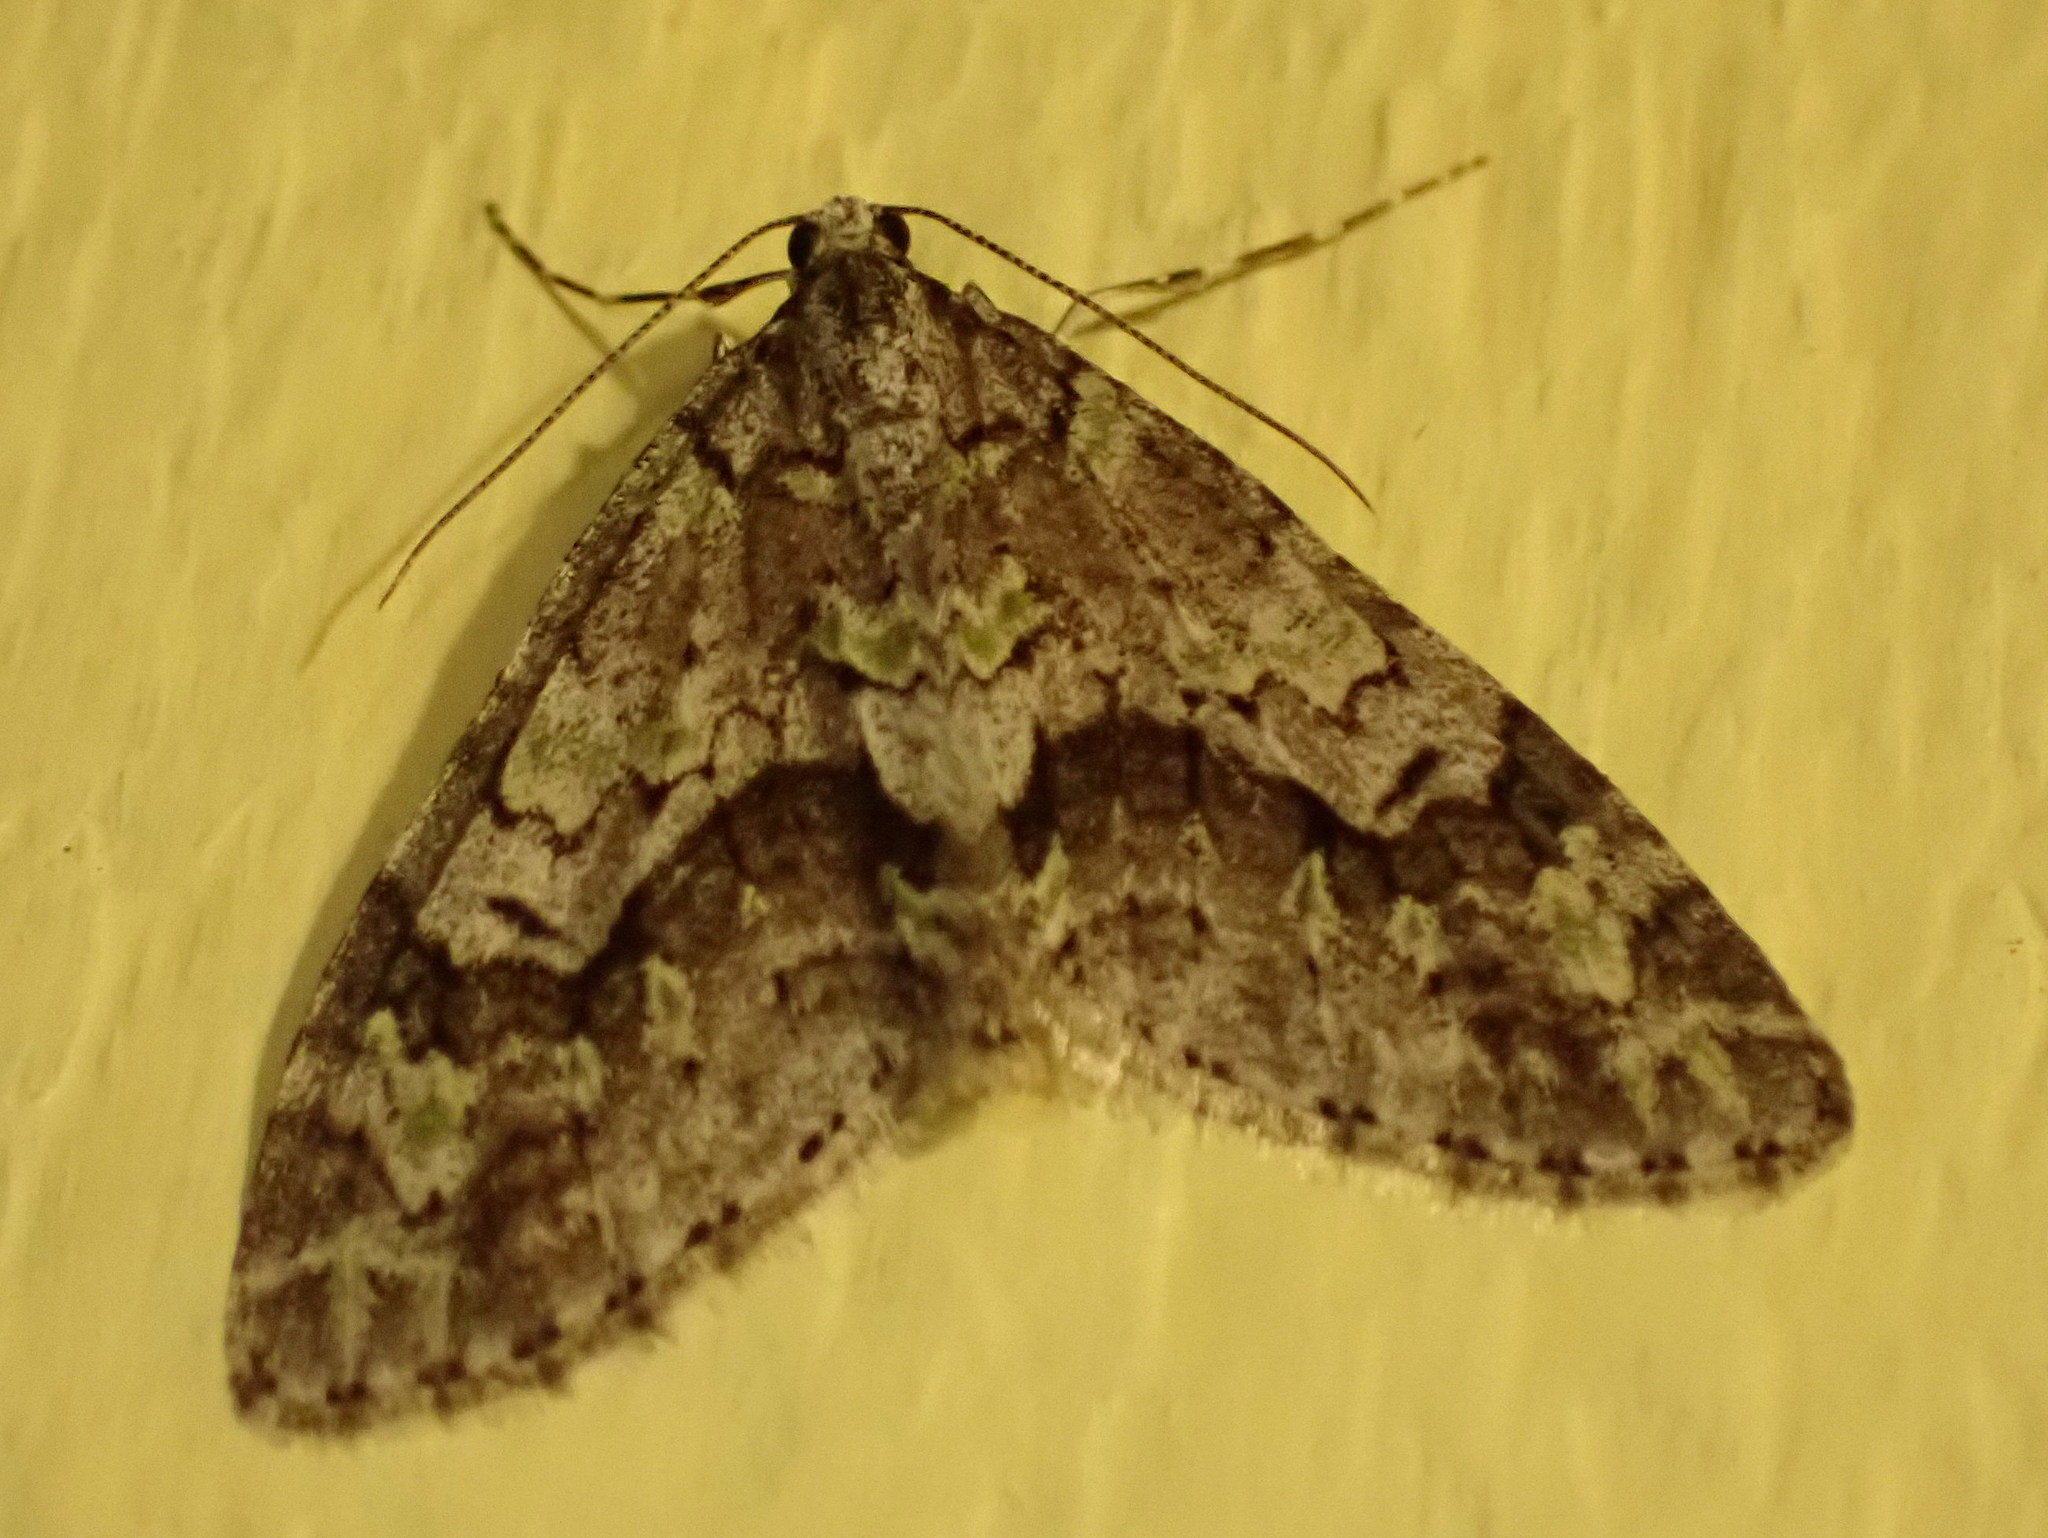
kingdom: Animalia
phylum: Arthropoda
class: Insecta
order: Lepidoptera
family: Geometridae
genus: Cladara
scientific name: Cladara limitaria
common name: Mottled gray carpet
